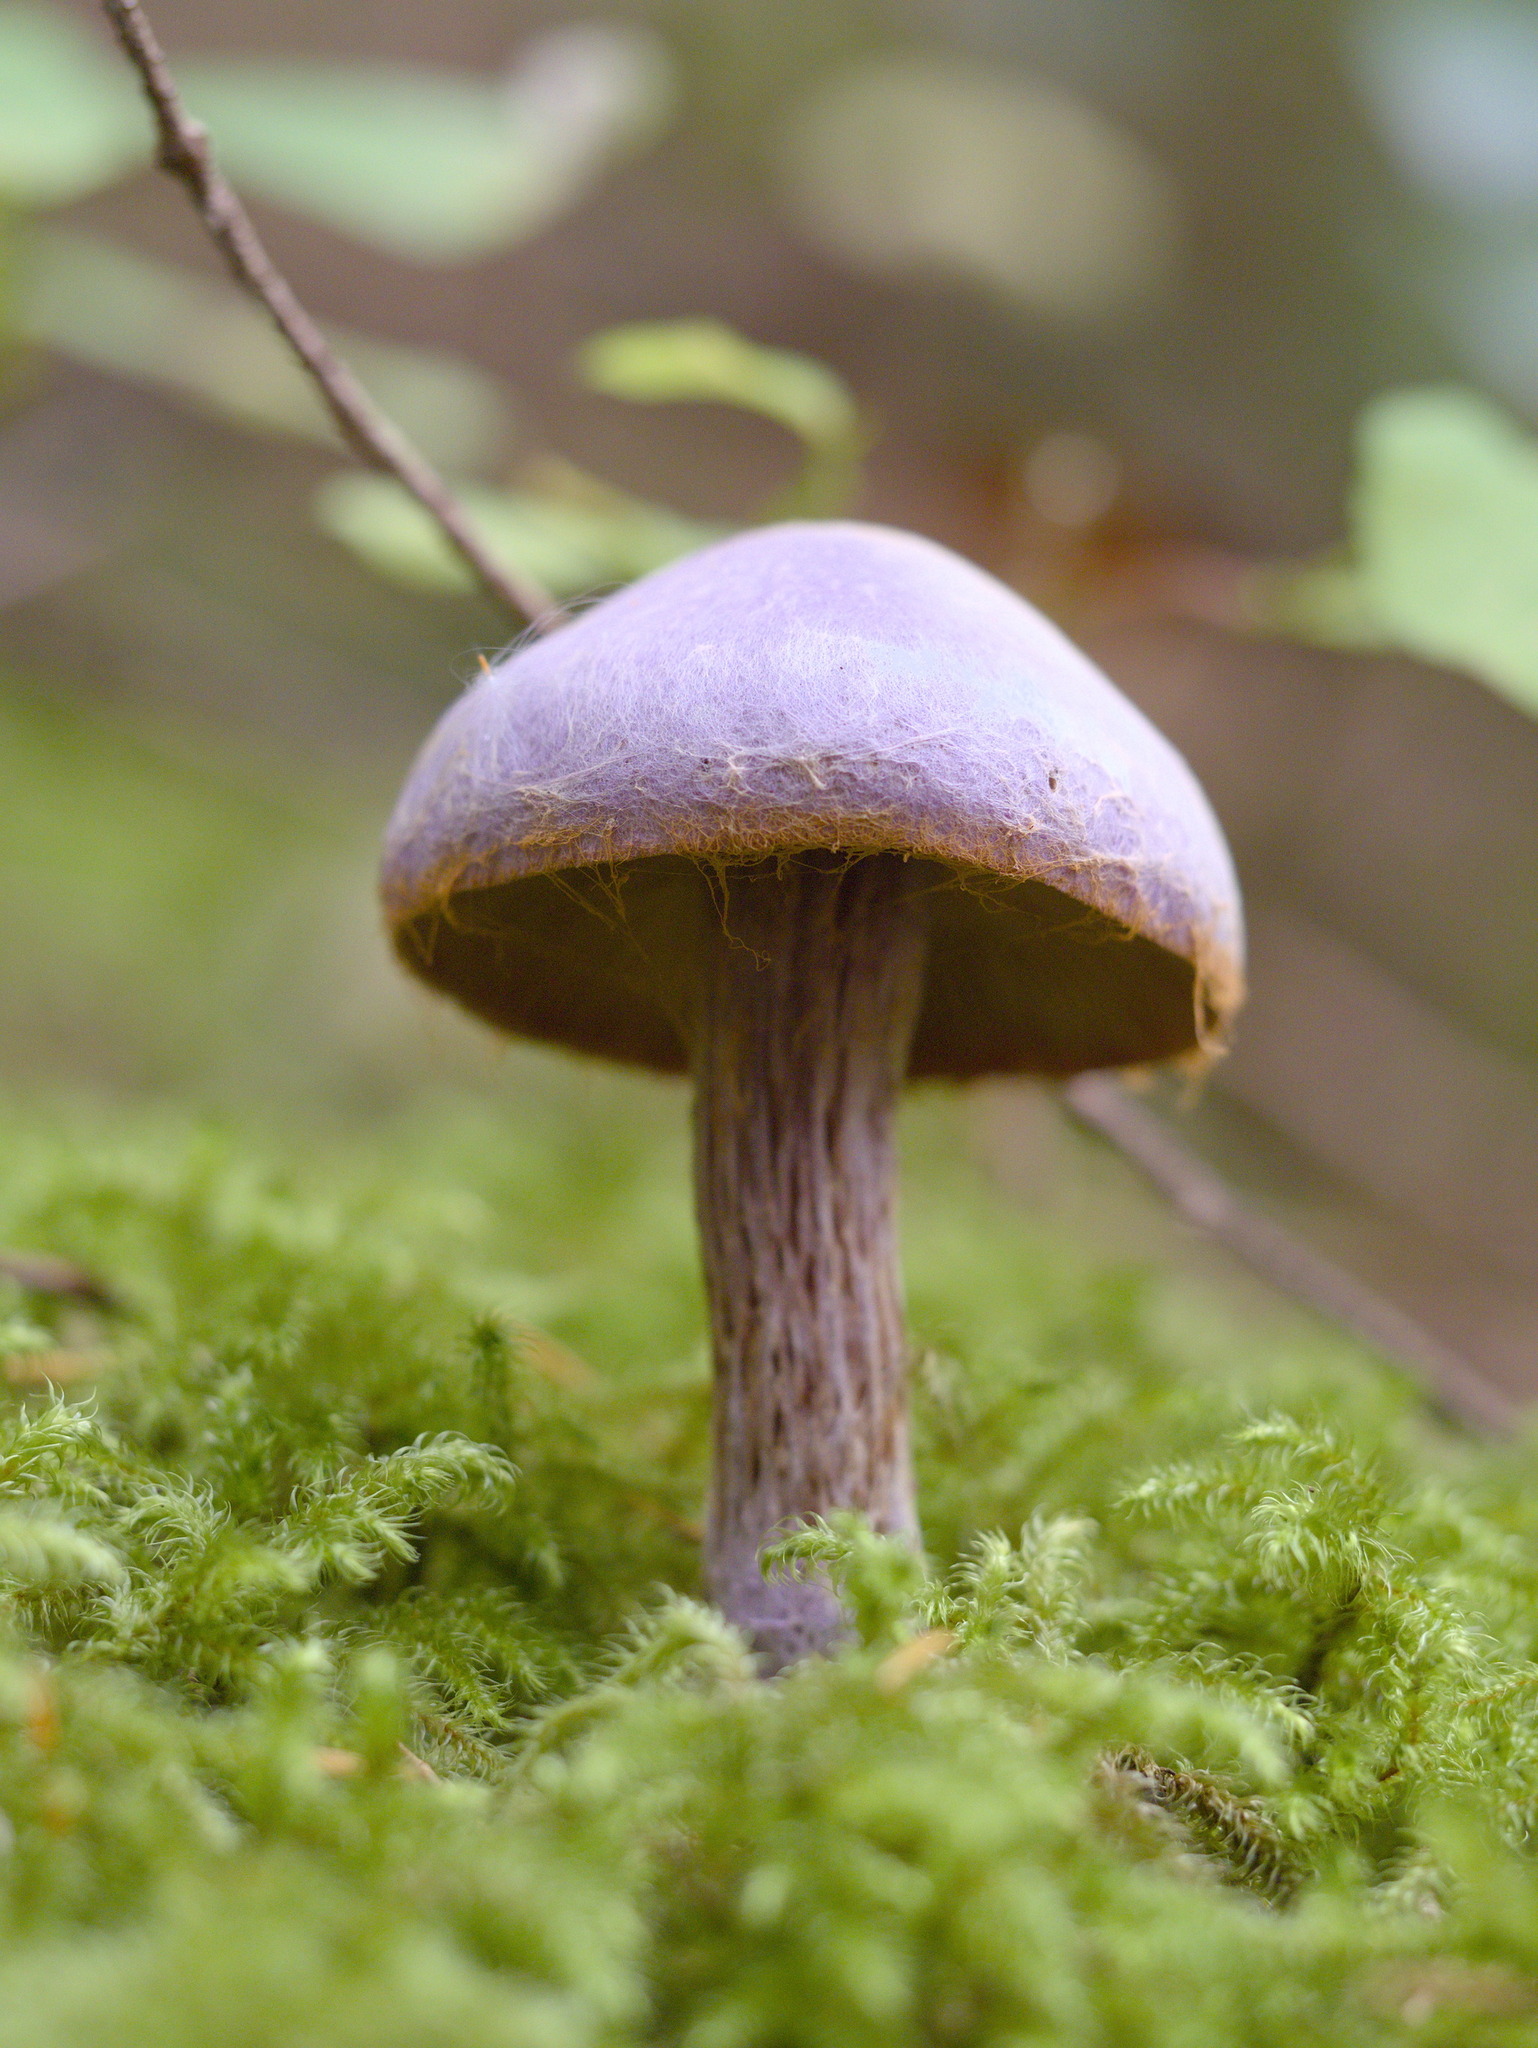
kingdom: Fungi
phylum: Basidiomycota
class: Agaricomycetes
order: Agaricales
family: Cortinariaceae
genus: Cortinarius
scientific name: Cortinarius traganus
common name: Gassy webcap
